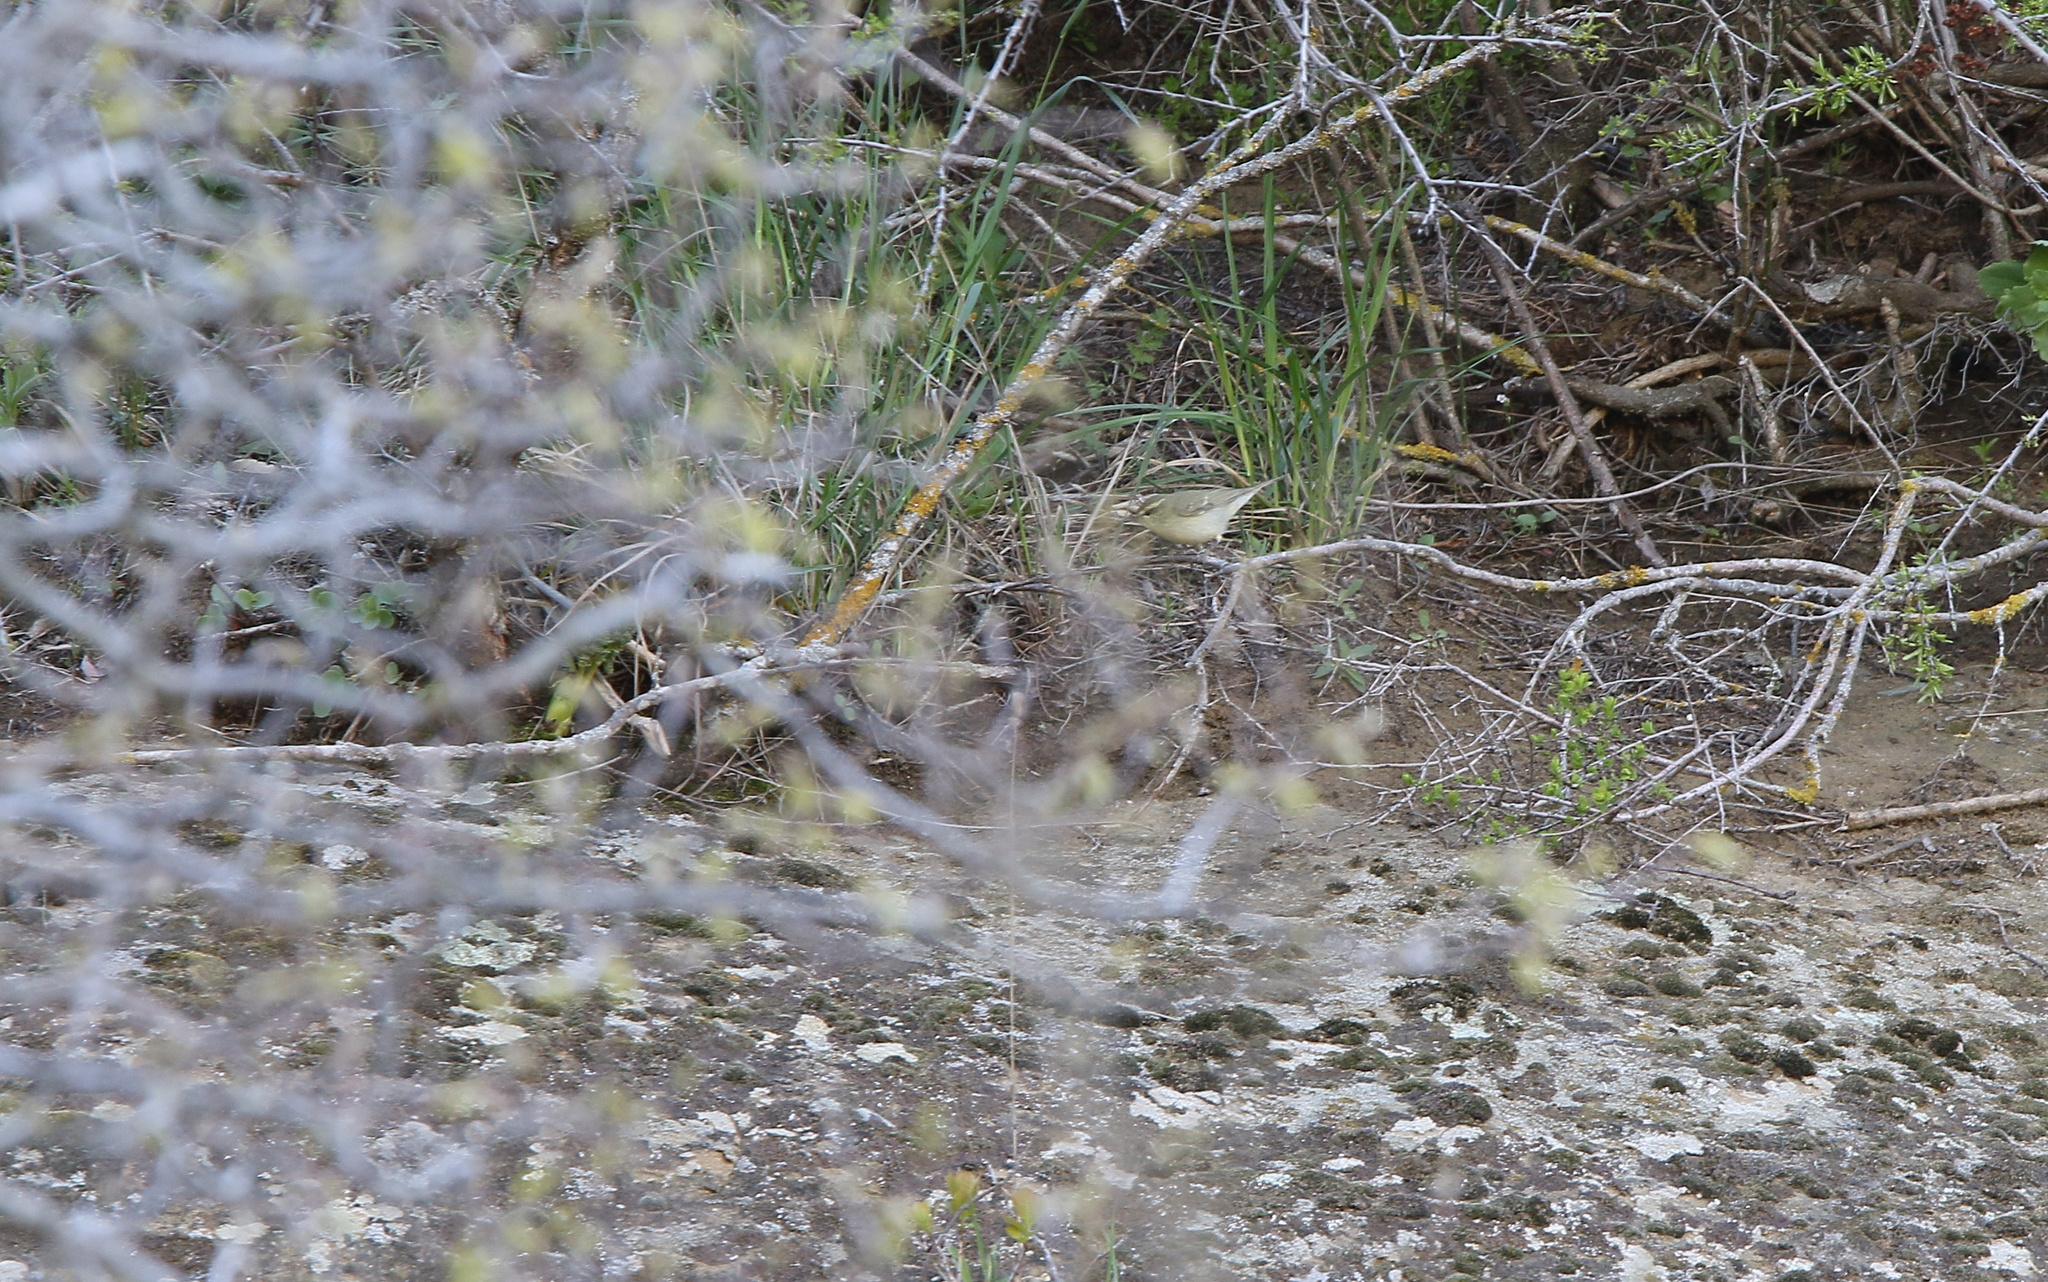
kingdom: Animalia
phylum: Chordata
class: Aves
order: Passeriformes
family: Phylloscopidae
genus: Phylloscopus
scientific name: Phylloscopus nitidus
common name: Green warbler
